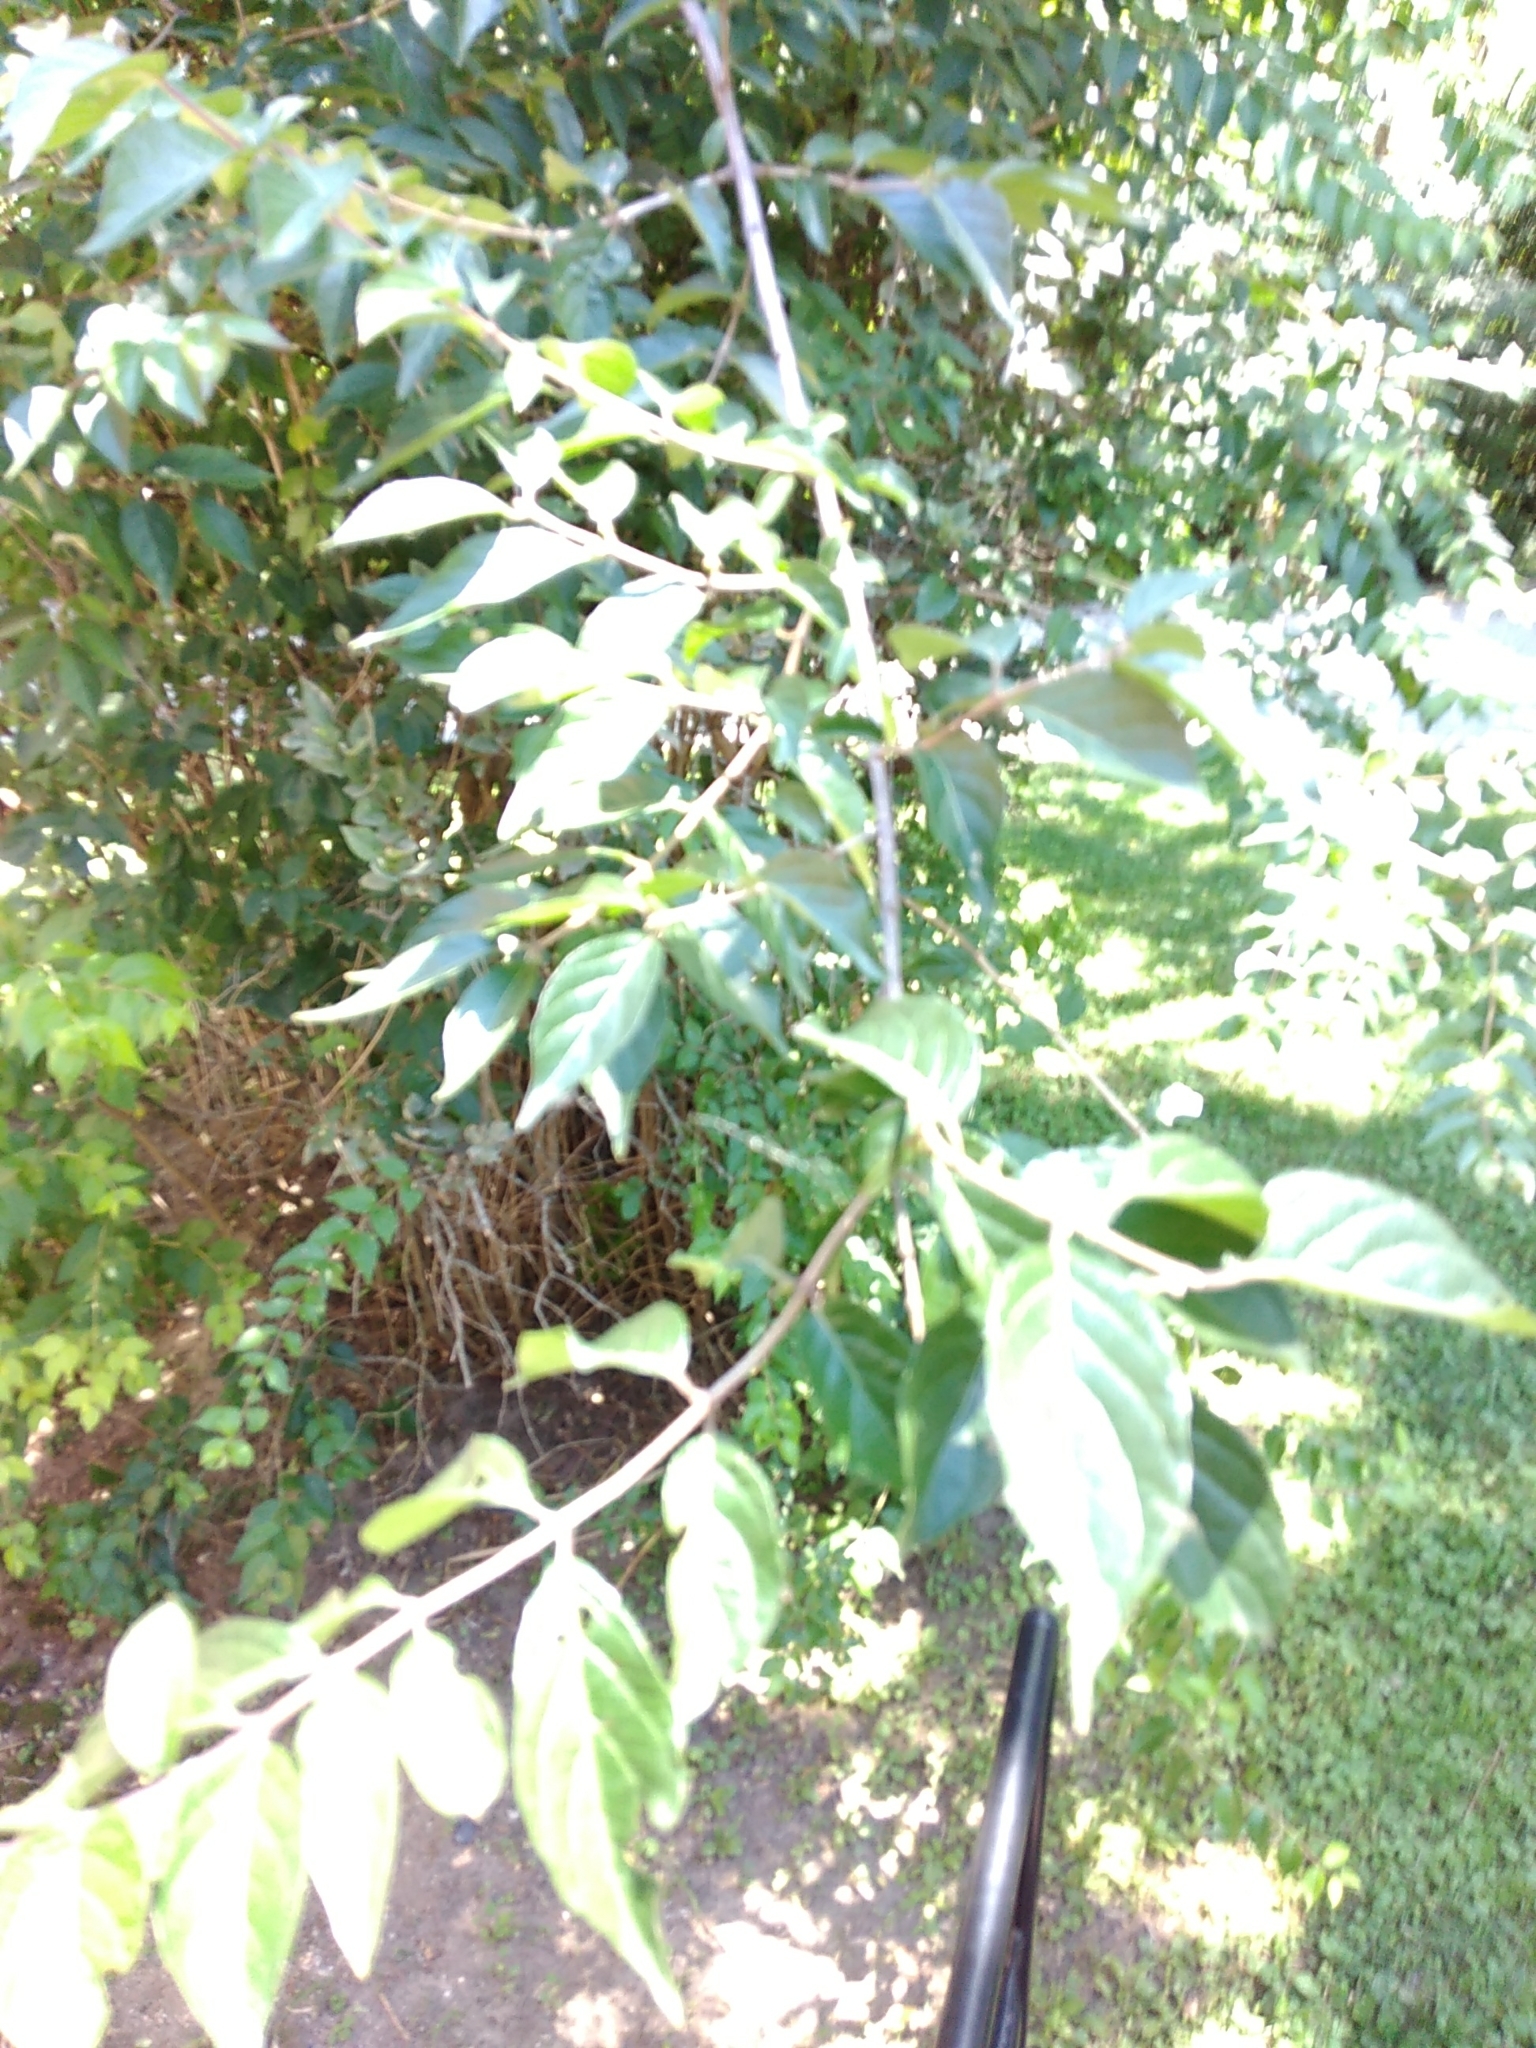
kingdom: Plantae
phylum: Tracheophyta
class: Magnoliopsida
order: Dipsacales
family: Caprifoliaceae
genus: Lonicera
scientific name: Lonicera maackii
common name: Amur honeysuckle
